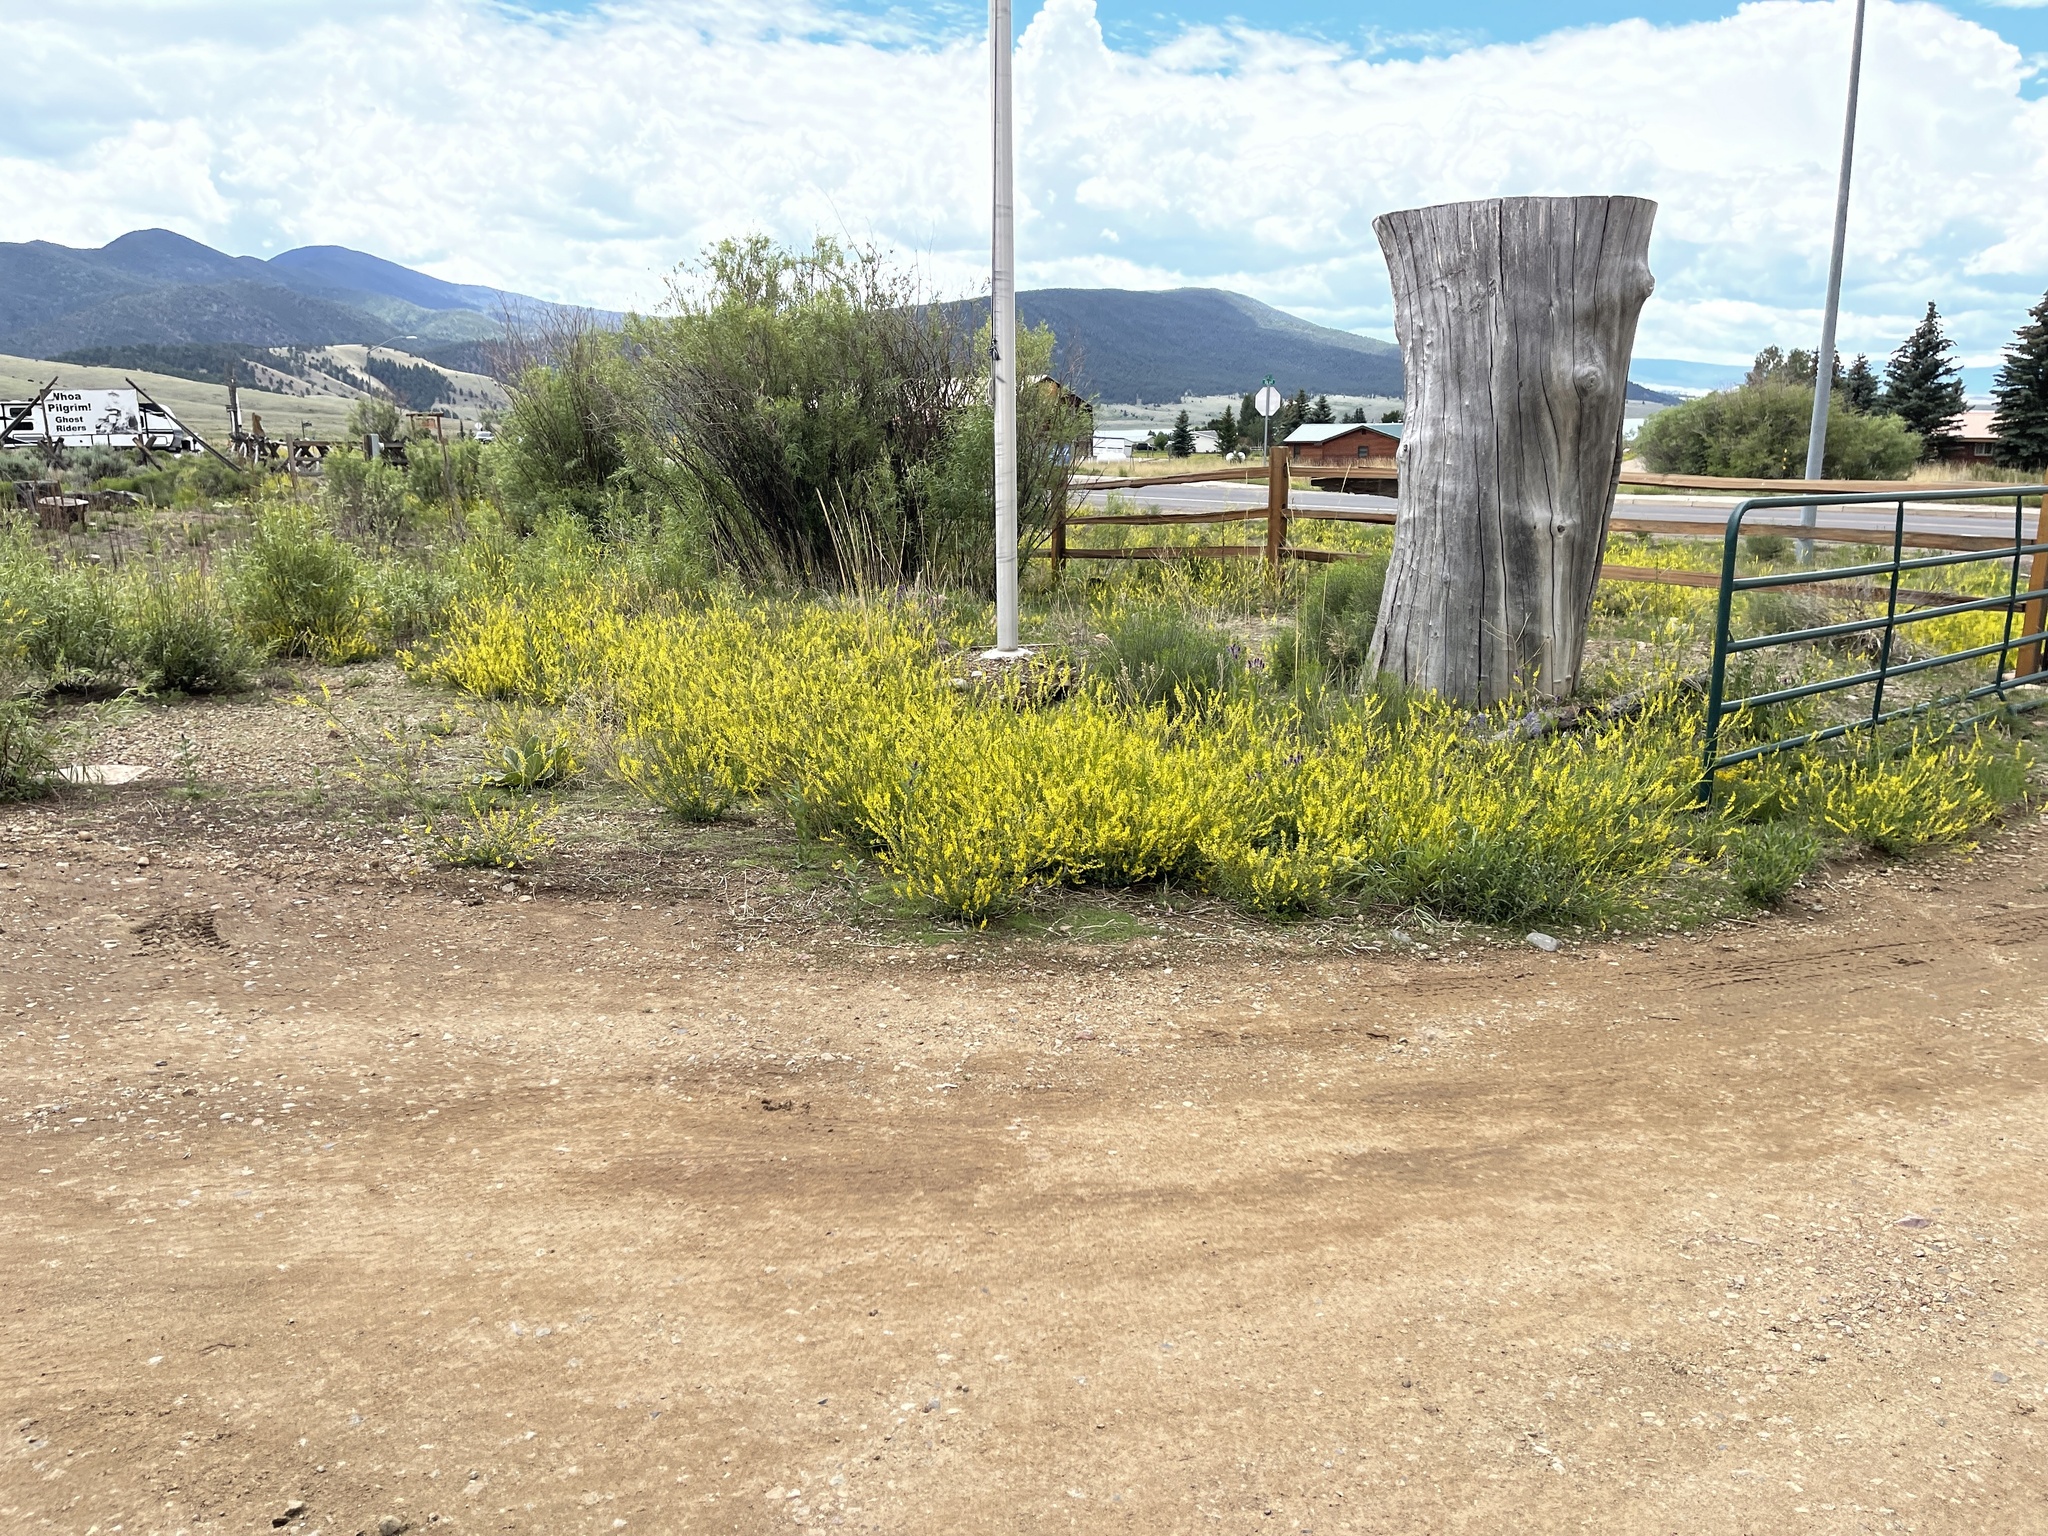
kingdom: Plantae
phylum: Tracheophyta
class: Magnoliopsida
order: Fabales
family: Fabaceae
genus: Melilotus
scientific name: Melilotus officinalis
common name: Sweetclover
